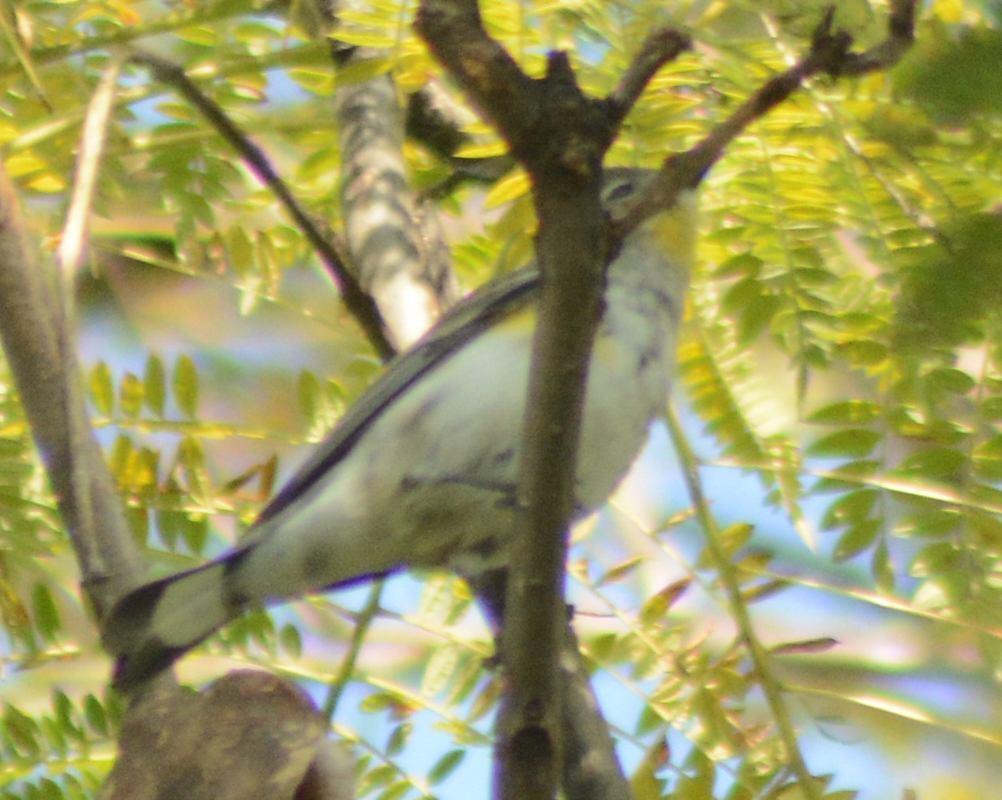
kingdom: Animalia
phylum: Chordata
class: Aves
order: Passeriformes
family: Parulidae
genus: Setophaga
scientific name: Setophaga coronata
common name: Myrtle warbler
